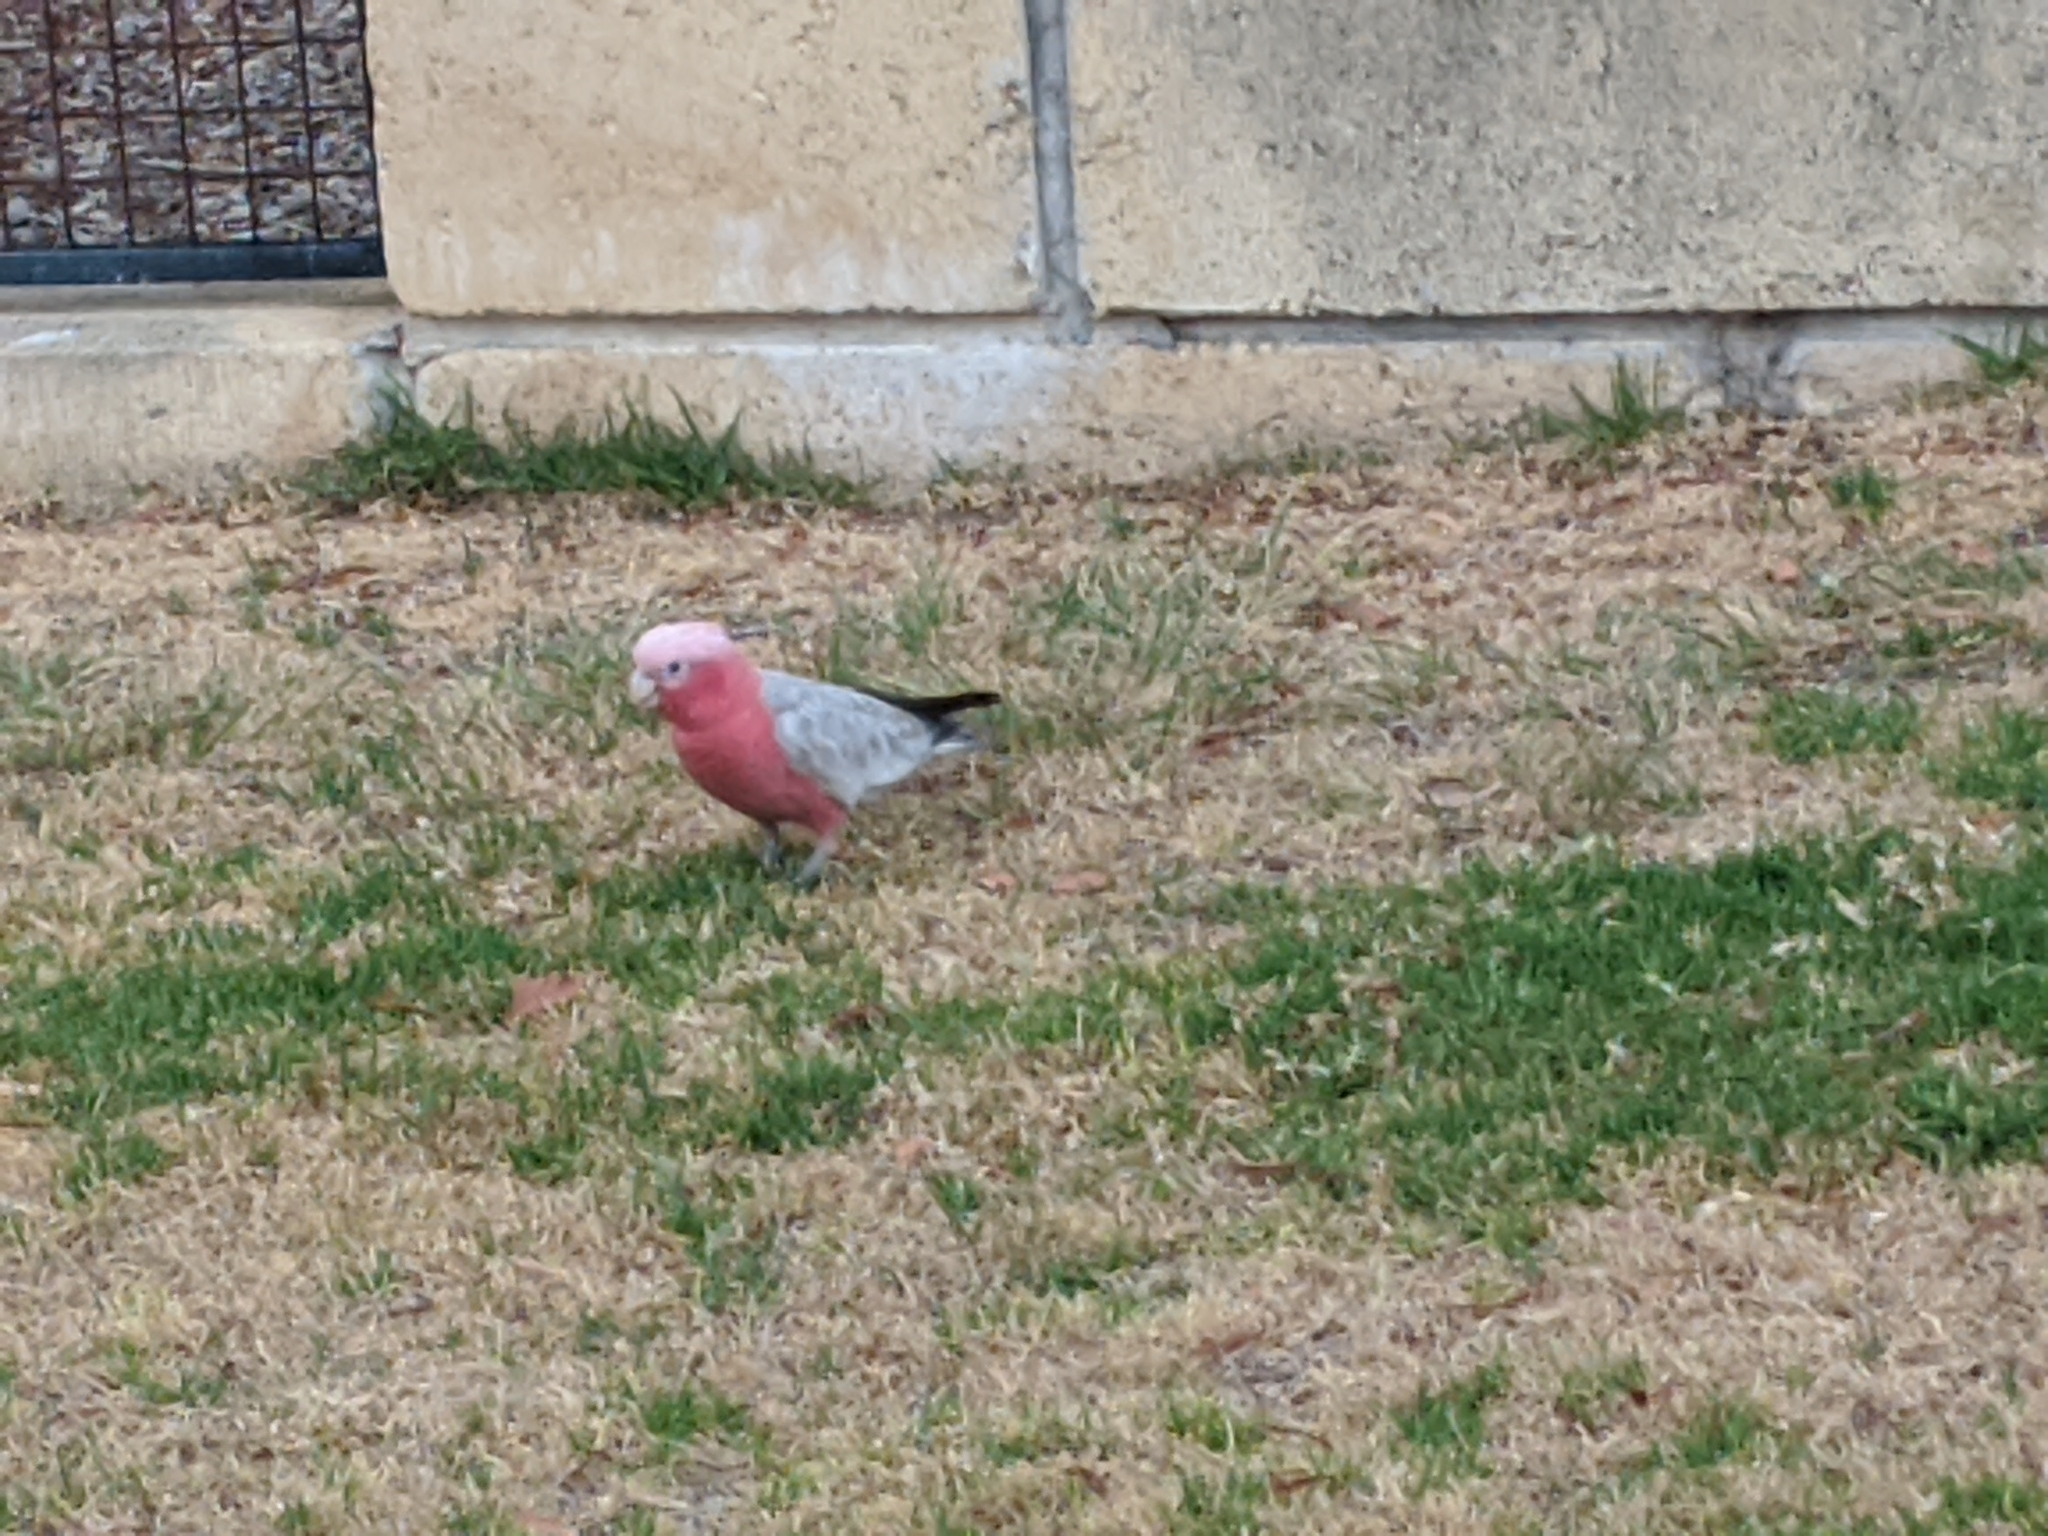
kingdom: Animalia
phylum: Chordata
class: Aves
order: Psittaciformes
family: Psittacidae
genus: Eolophus
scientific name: Eolophus roseicapilla
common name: Galah
